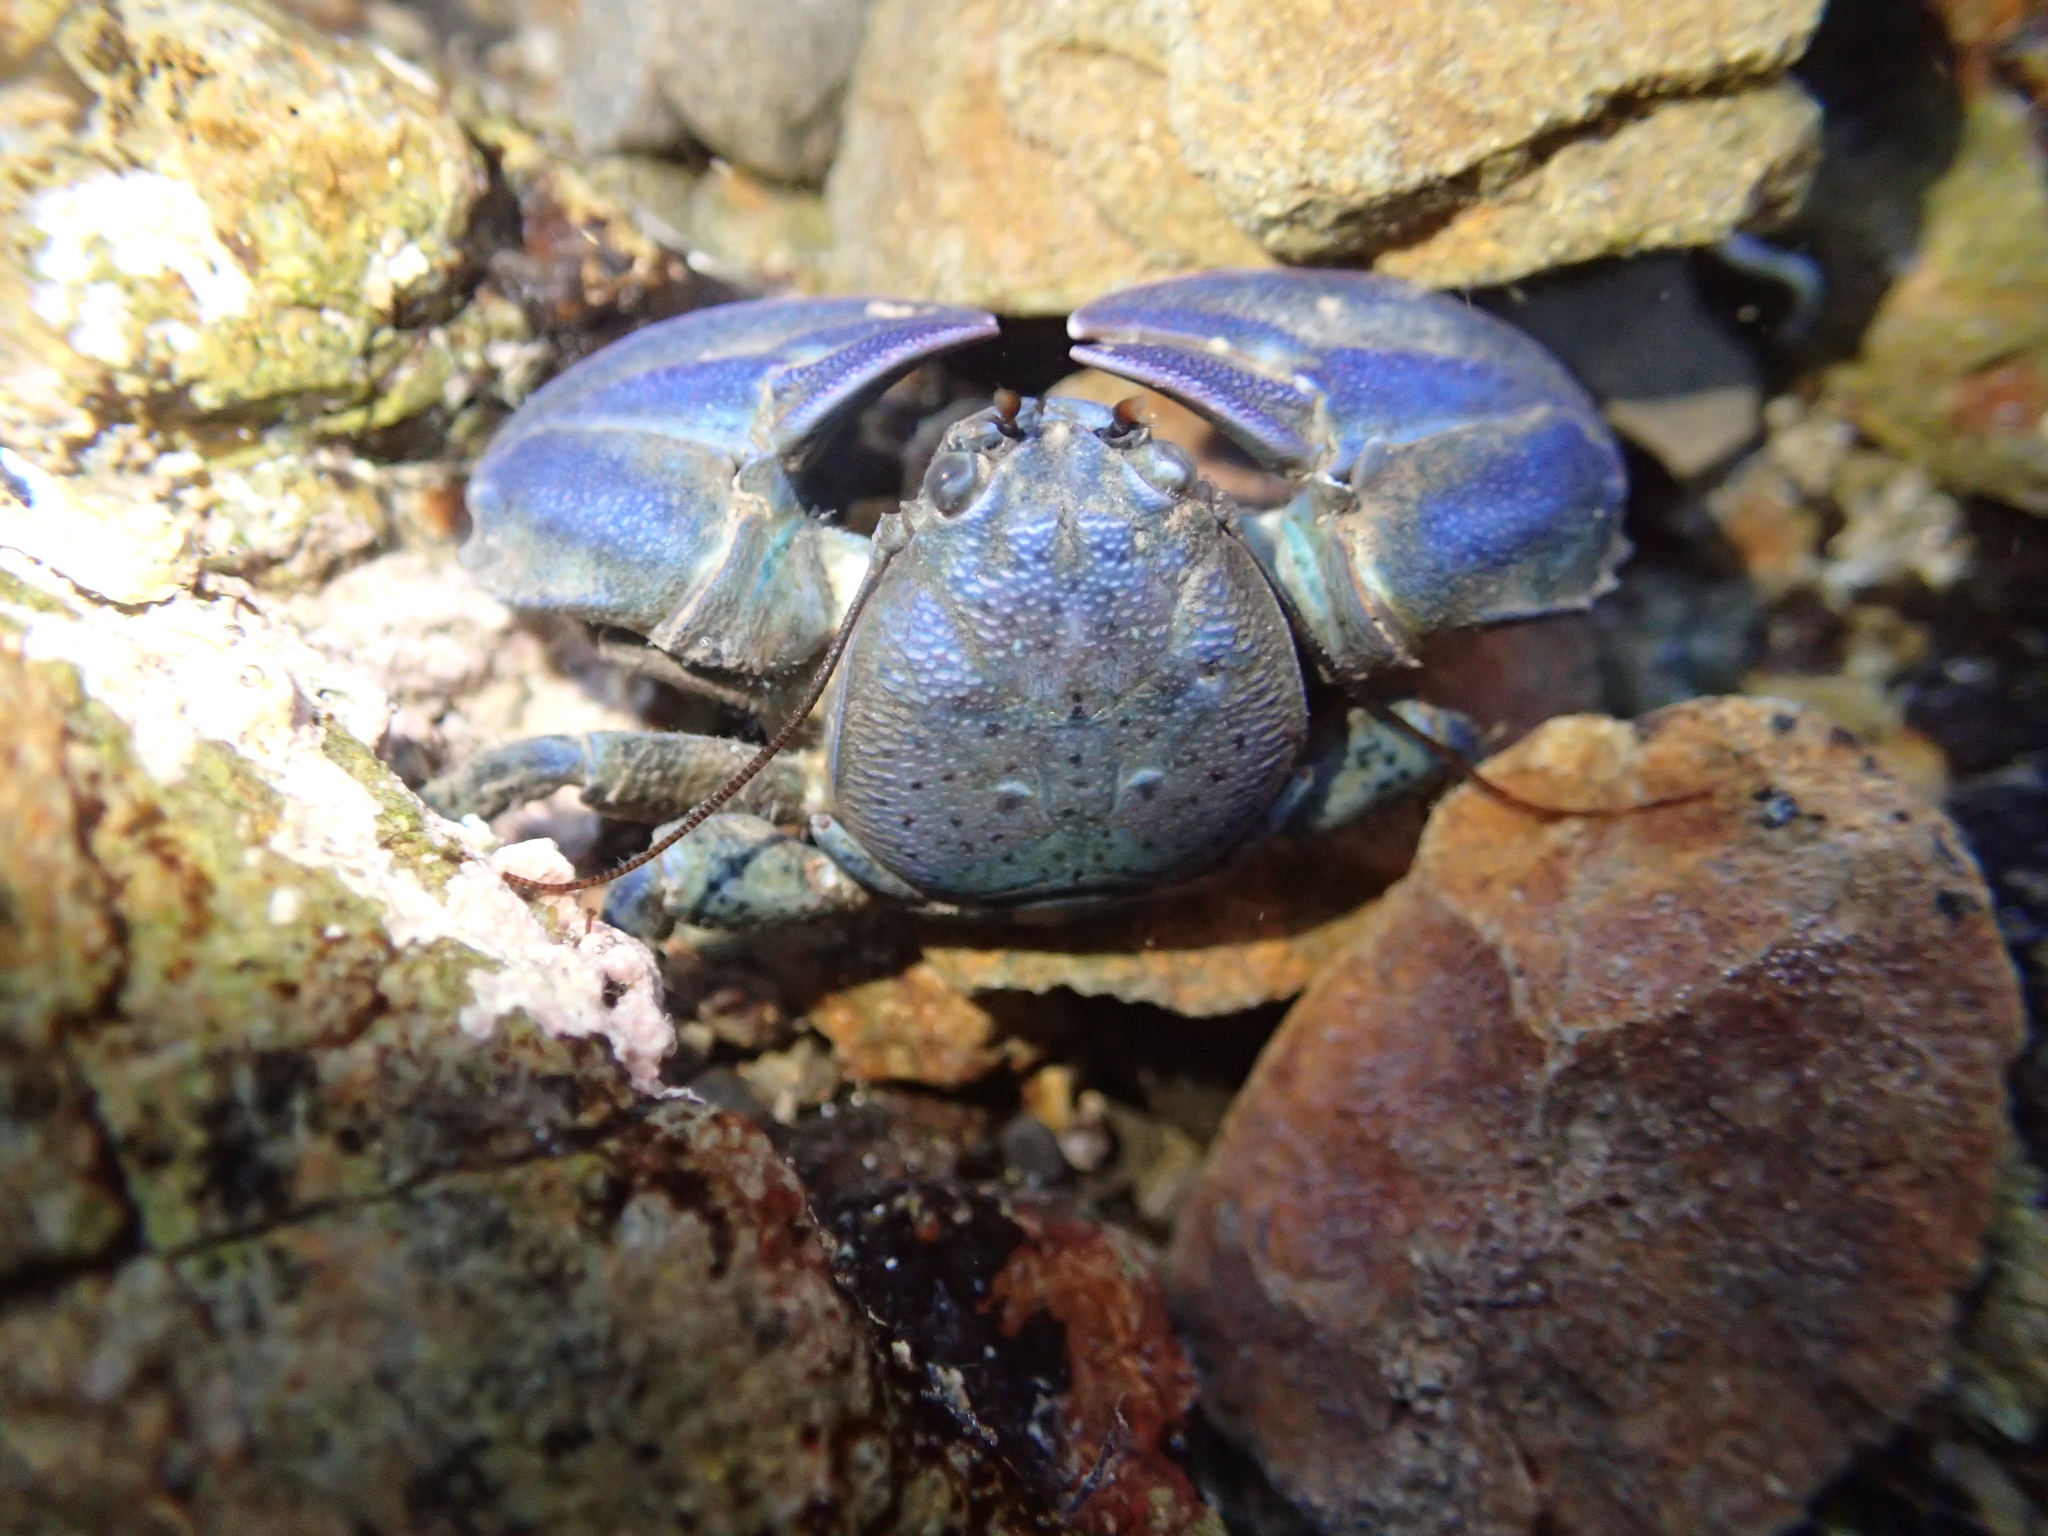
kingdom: Animalia
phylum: Arthropoda
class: Malacostraca
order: Decapoda
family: Porcellanidae
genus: Petrolisthes
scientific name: Petrolisthes elongatus
